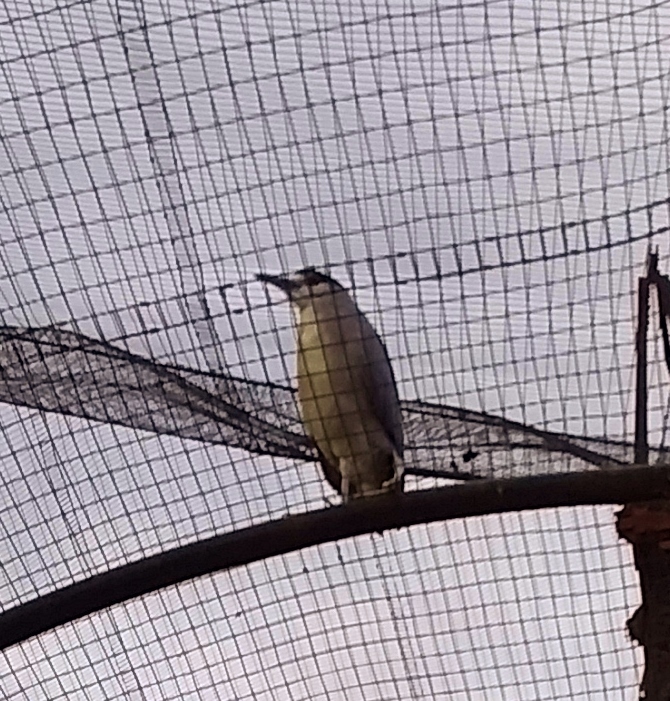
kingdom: Animalia
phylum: Chordata
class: Aves
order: Pelecaniformes
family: Ardeidae
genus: Nycticorax
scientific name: Nycticorax nycticorax
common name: Black-crowned night heron
